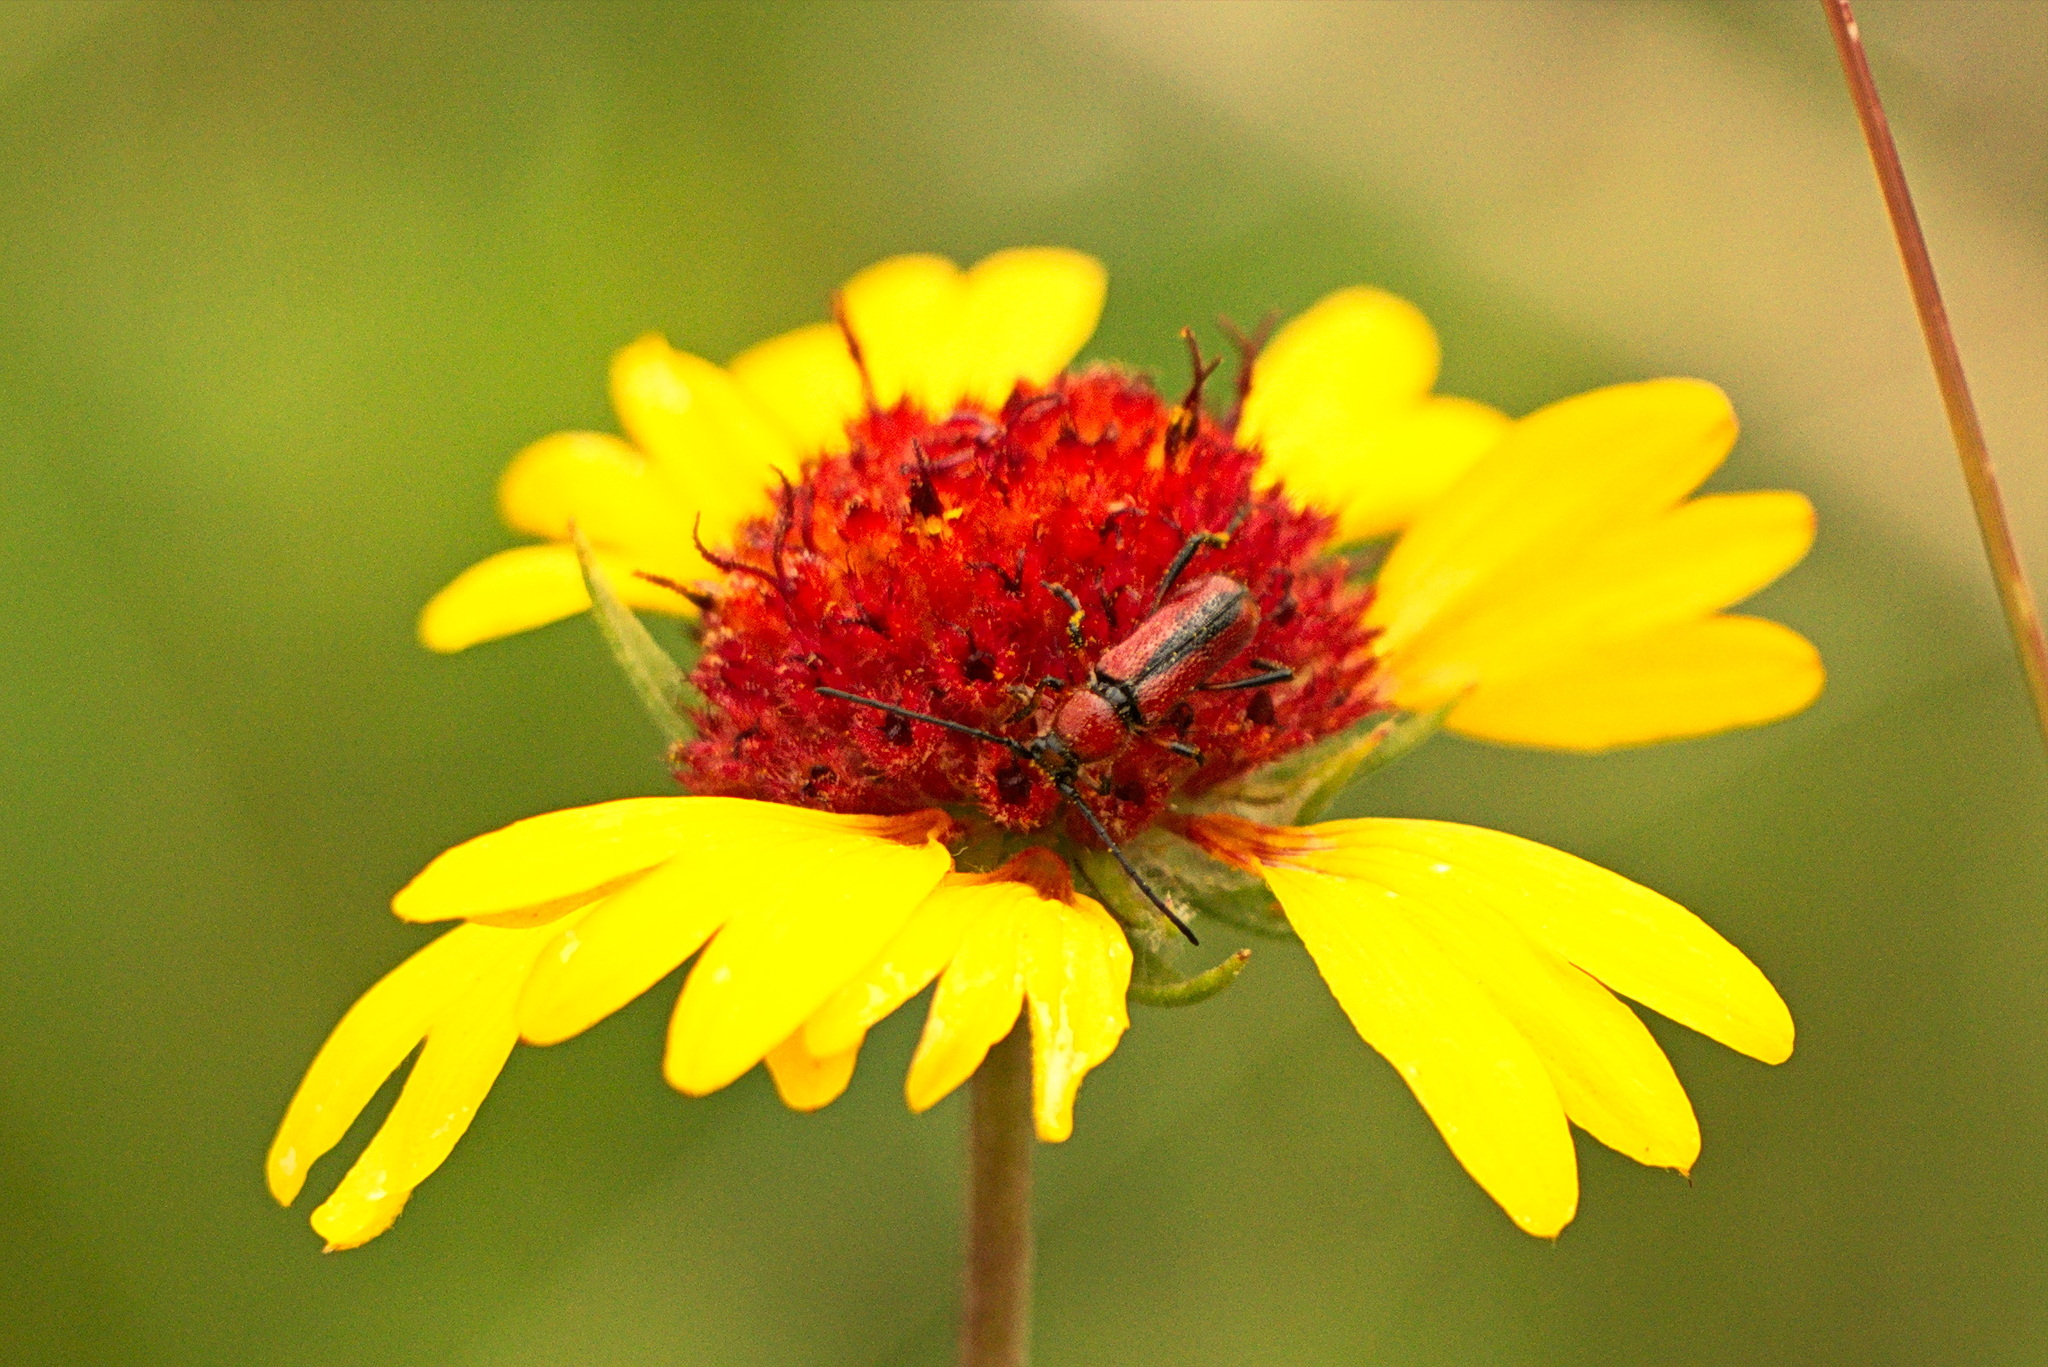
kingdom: Animalia
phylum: Arthropoda
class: Insecta
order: Coleoptera
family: Cerambycidae
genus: Batyle
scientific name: Batyle suturalis
